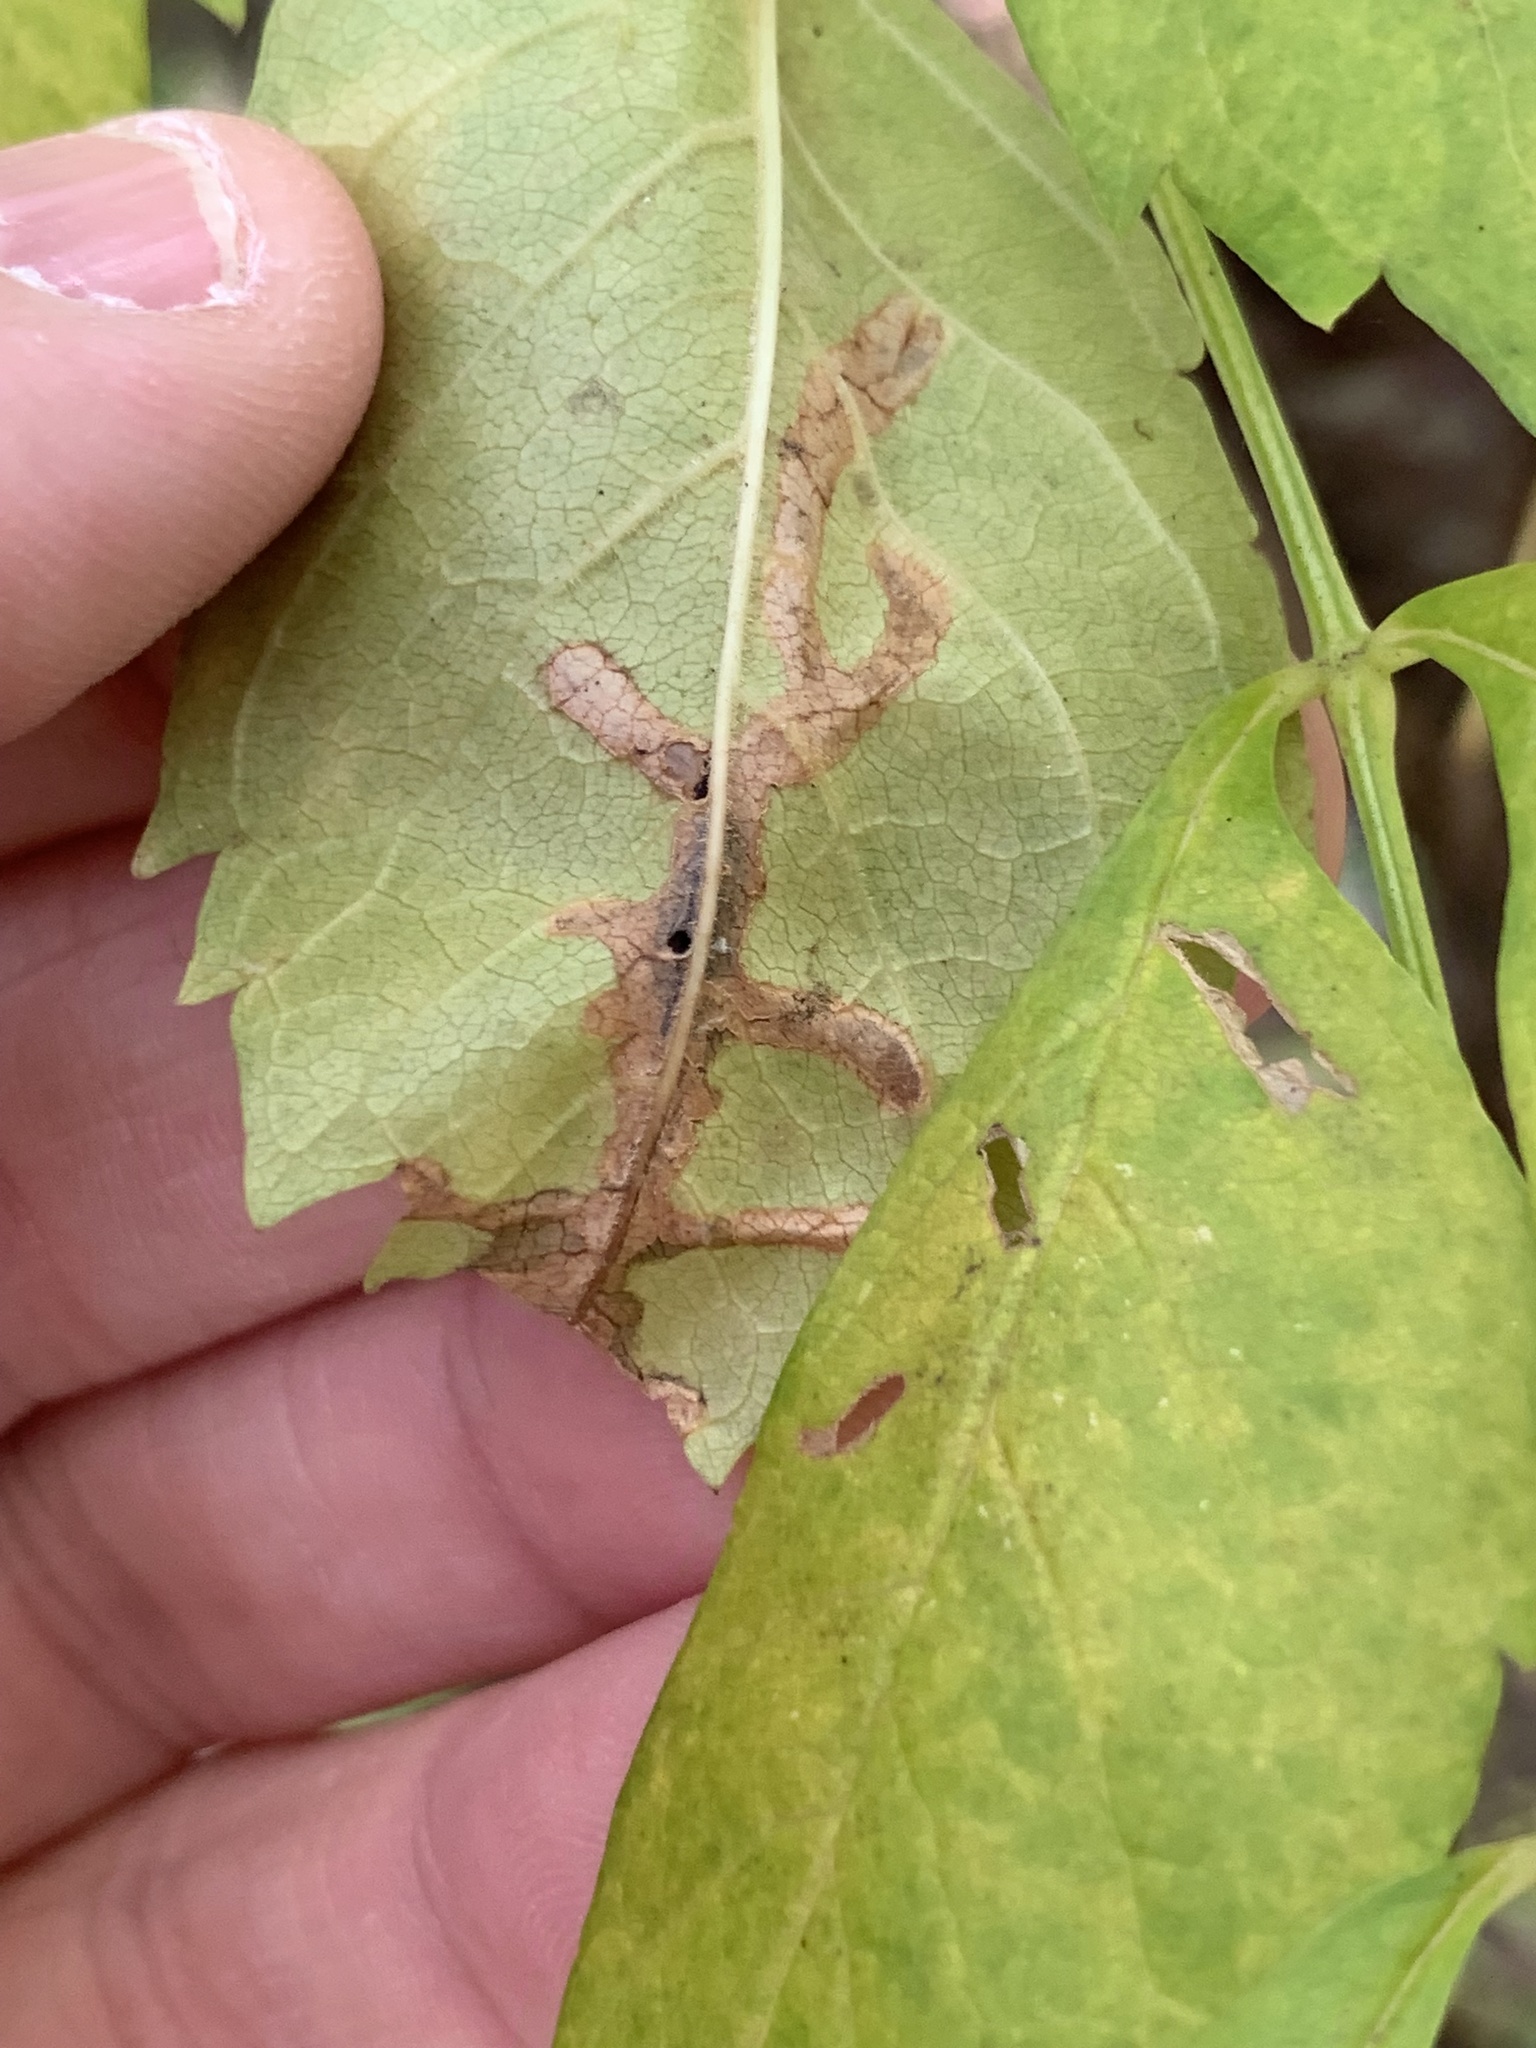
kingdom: Animalia
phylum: Arthropoda
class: Insecta
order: Coleoptera
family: Chrysomelidae
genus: Octotoma
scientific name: Octotoma plicatula
